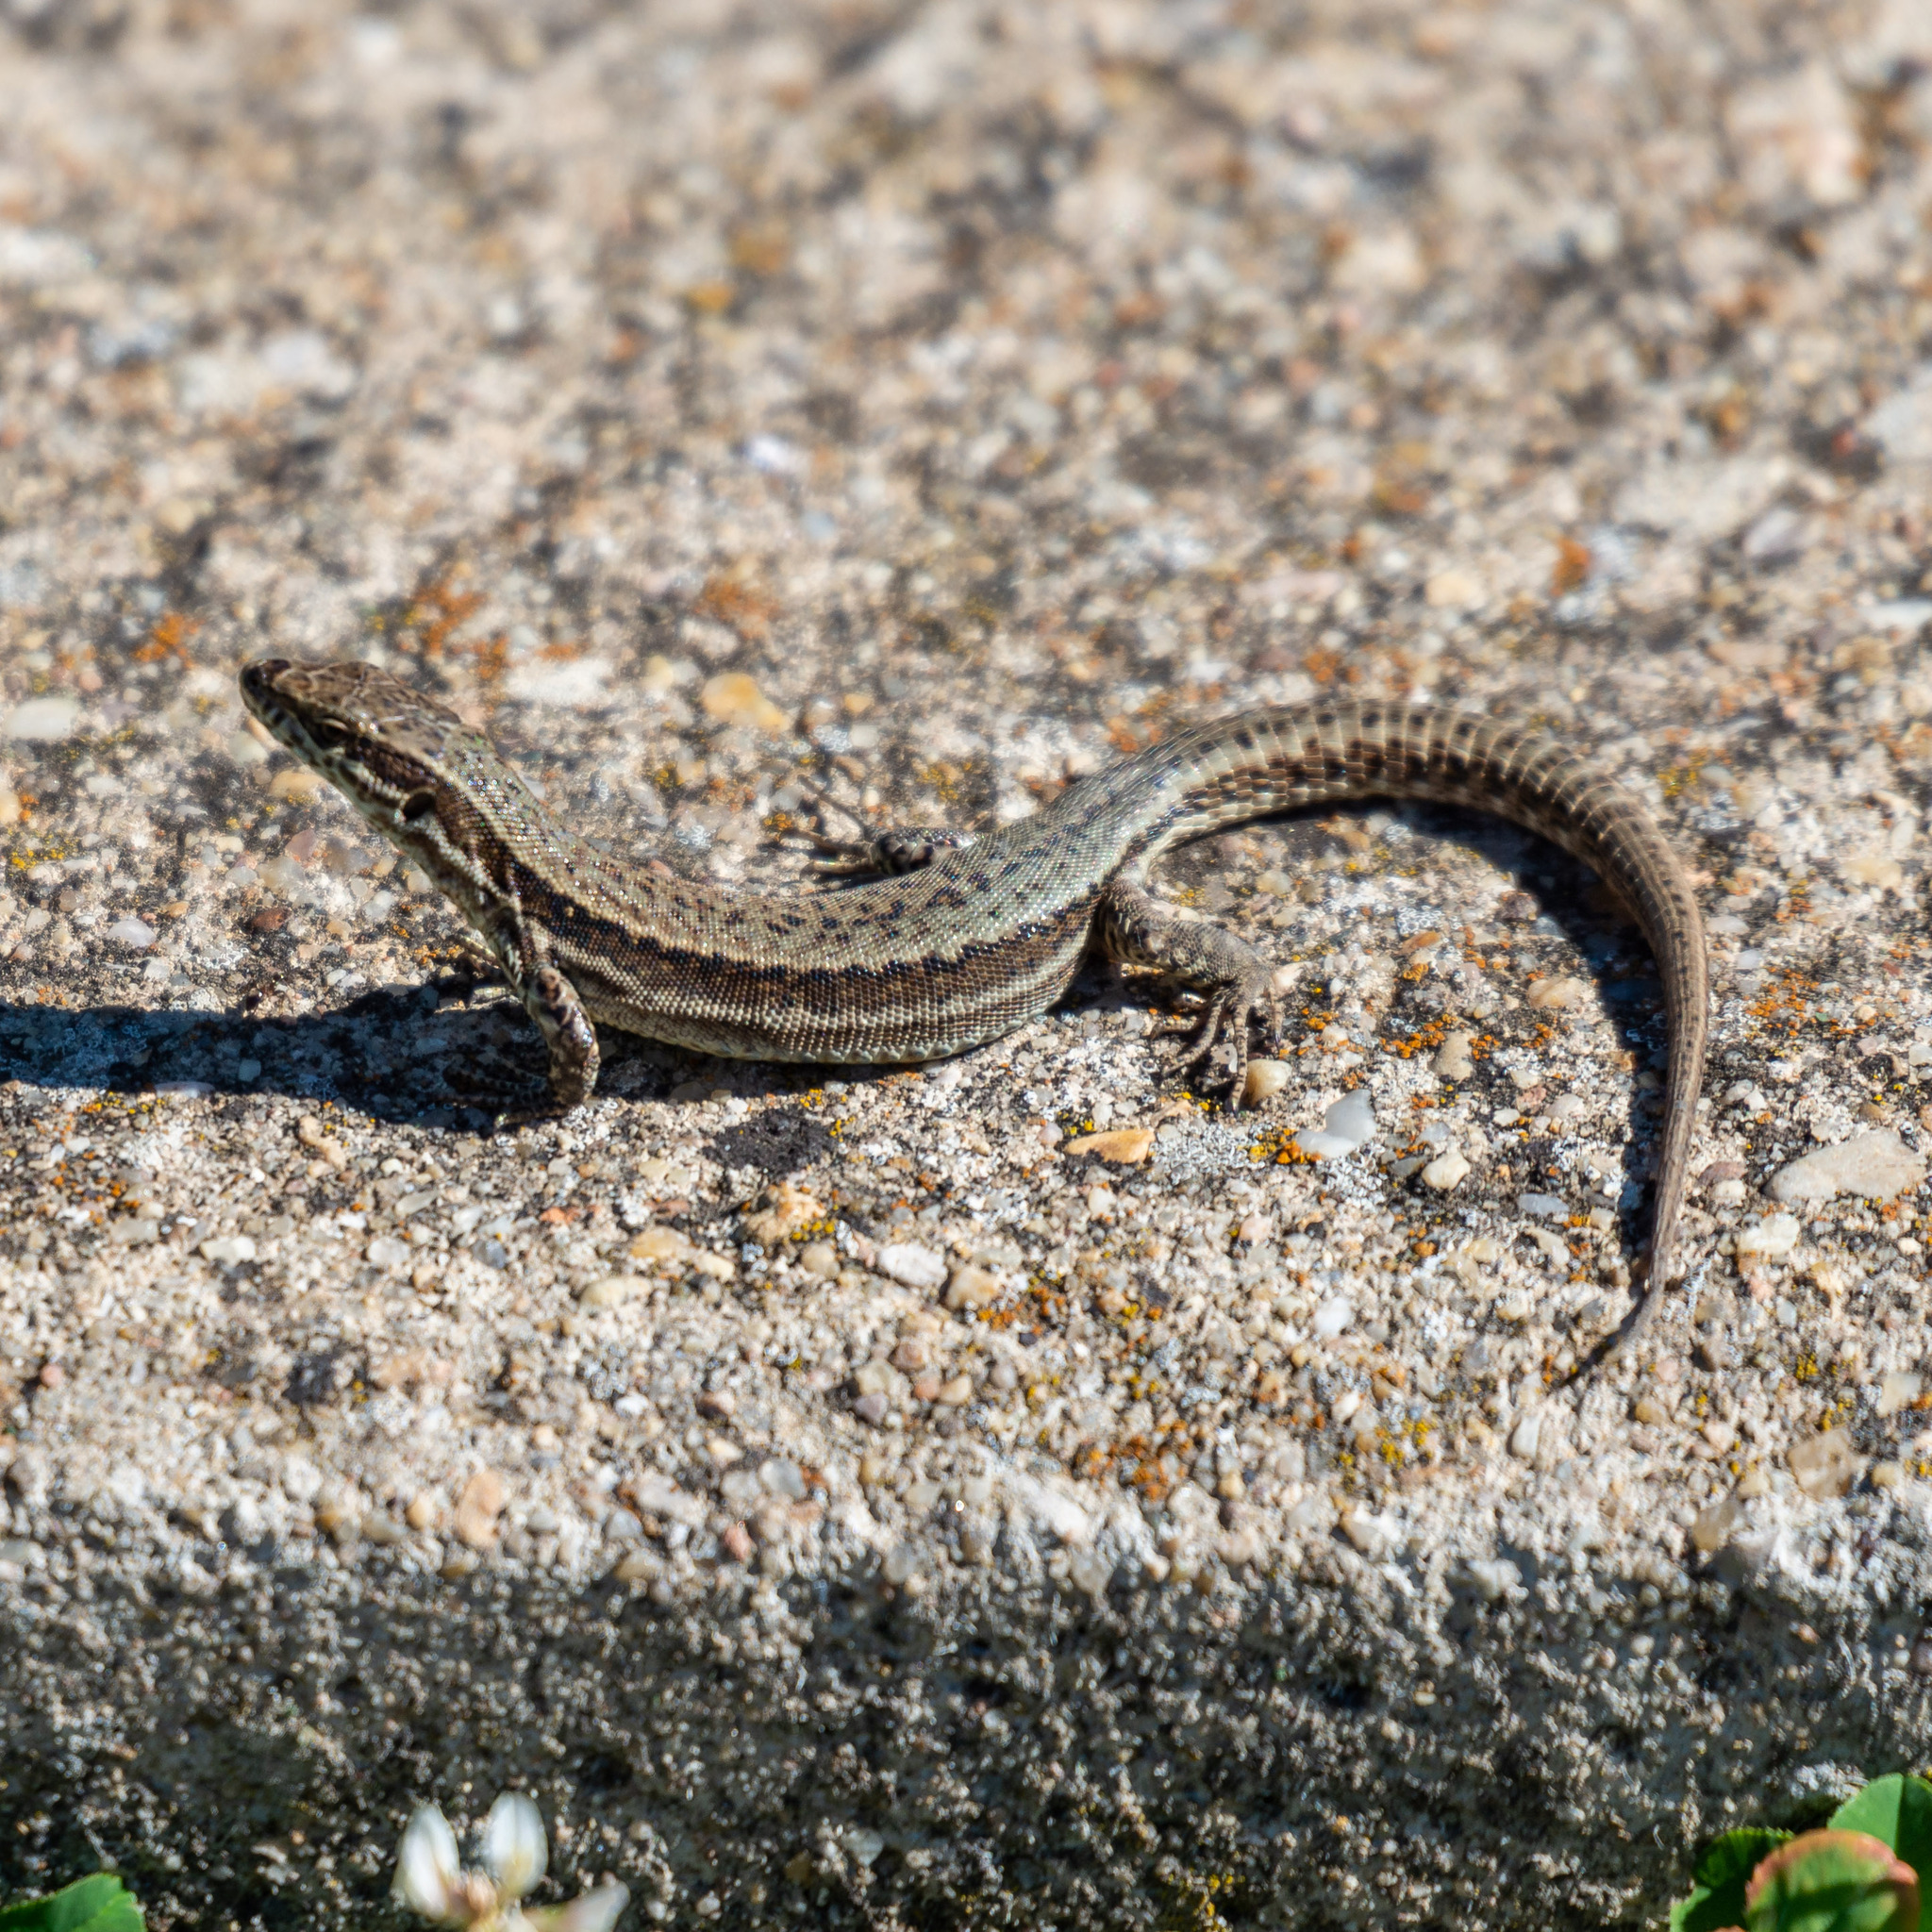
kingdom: Animalia
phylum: Chordata
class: Squamata
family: Lacertidae
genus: Podarcis
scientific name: Podarcis muralis
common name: Common wall lizard
